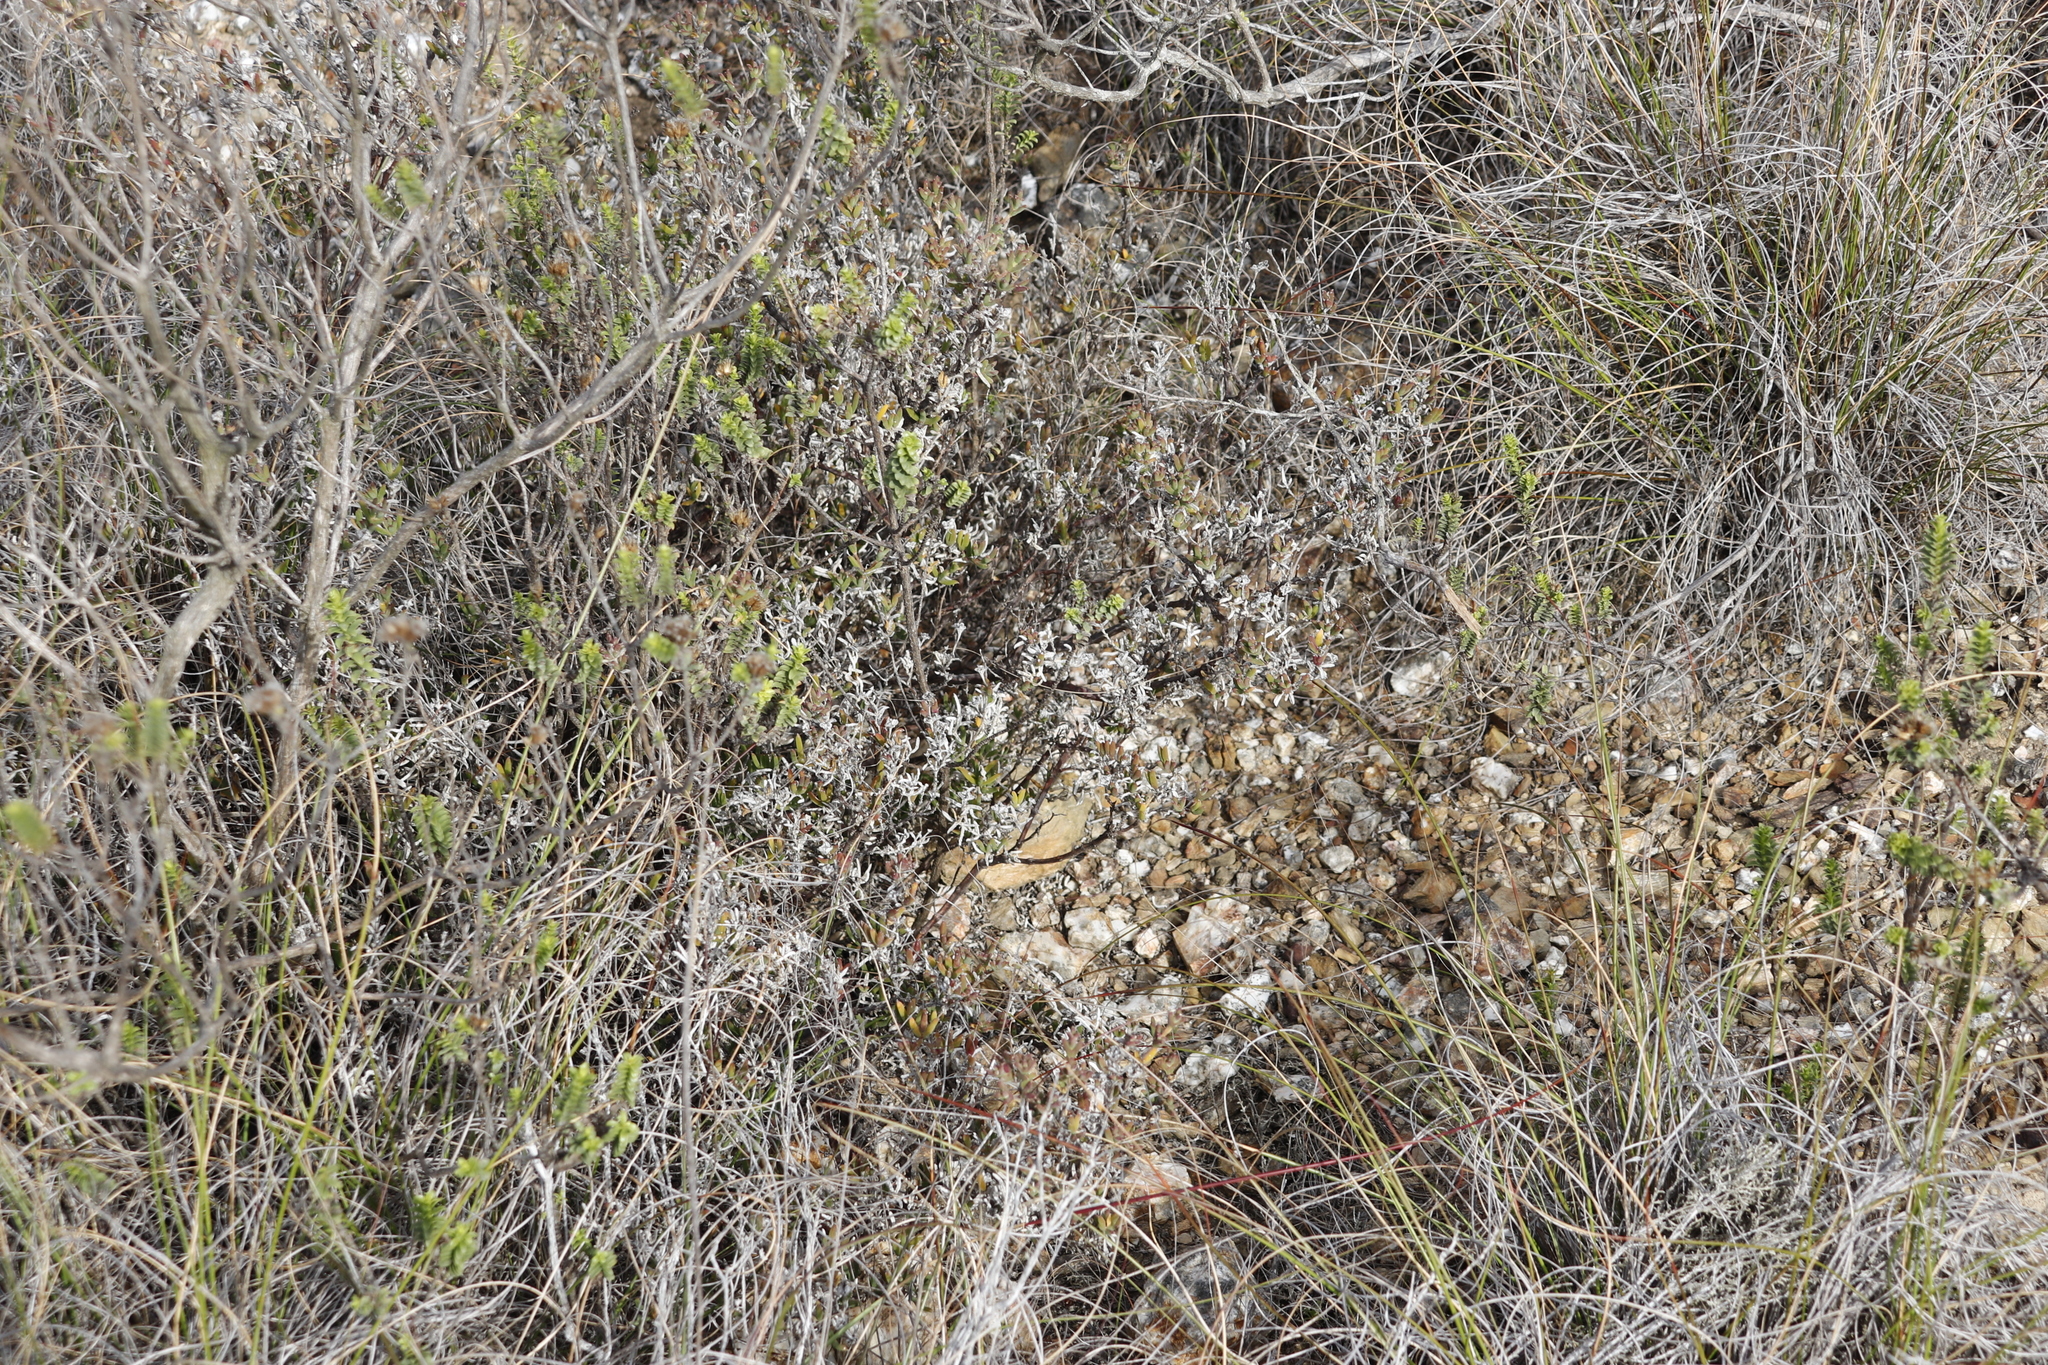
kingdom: Plantae
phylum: Tracheophyta
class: Magnoliopsida
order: Caryophyllales
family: Aizoaceae
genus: Delosperma
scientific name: Delosperma asperulum
